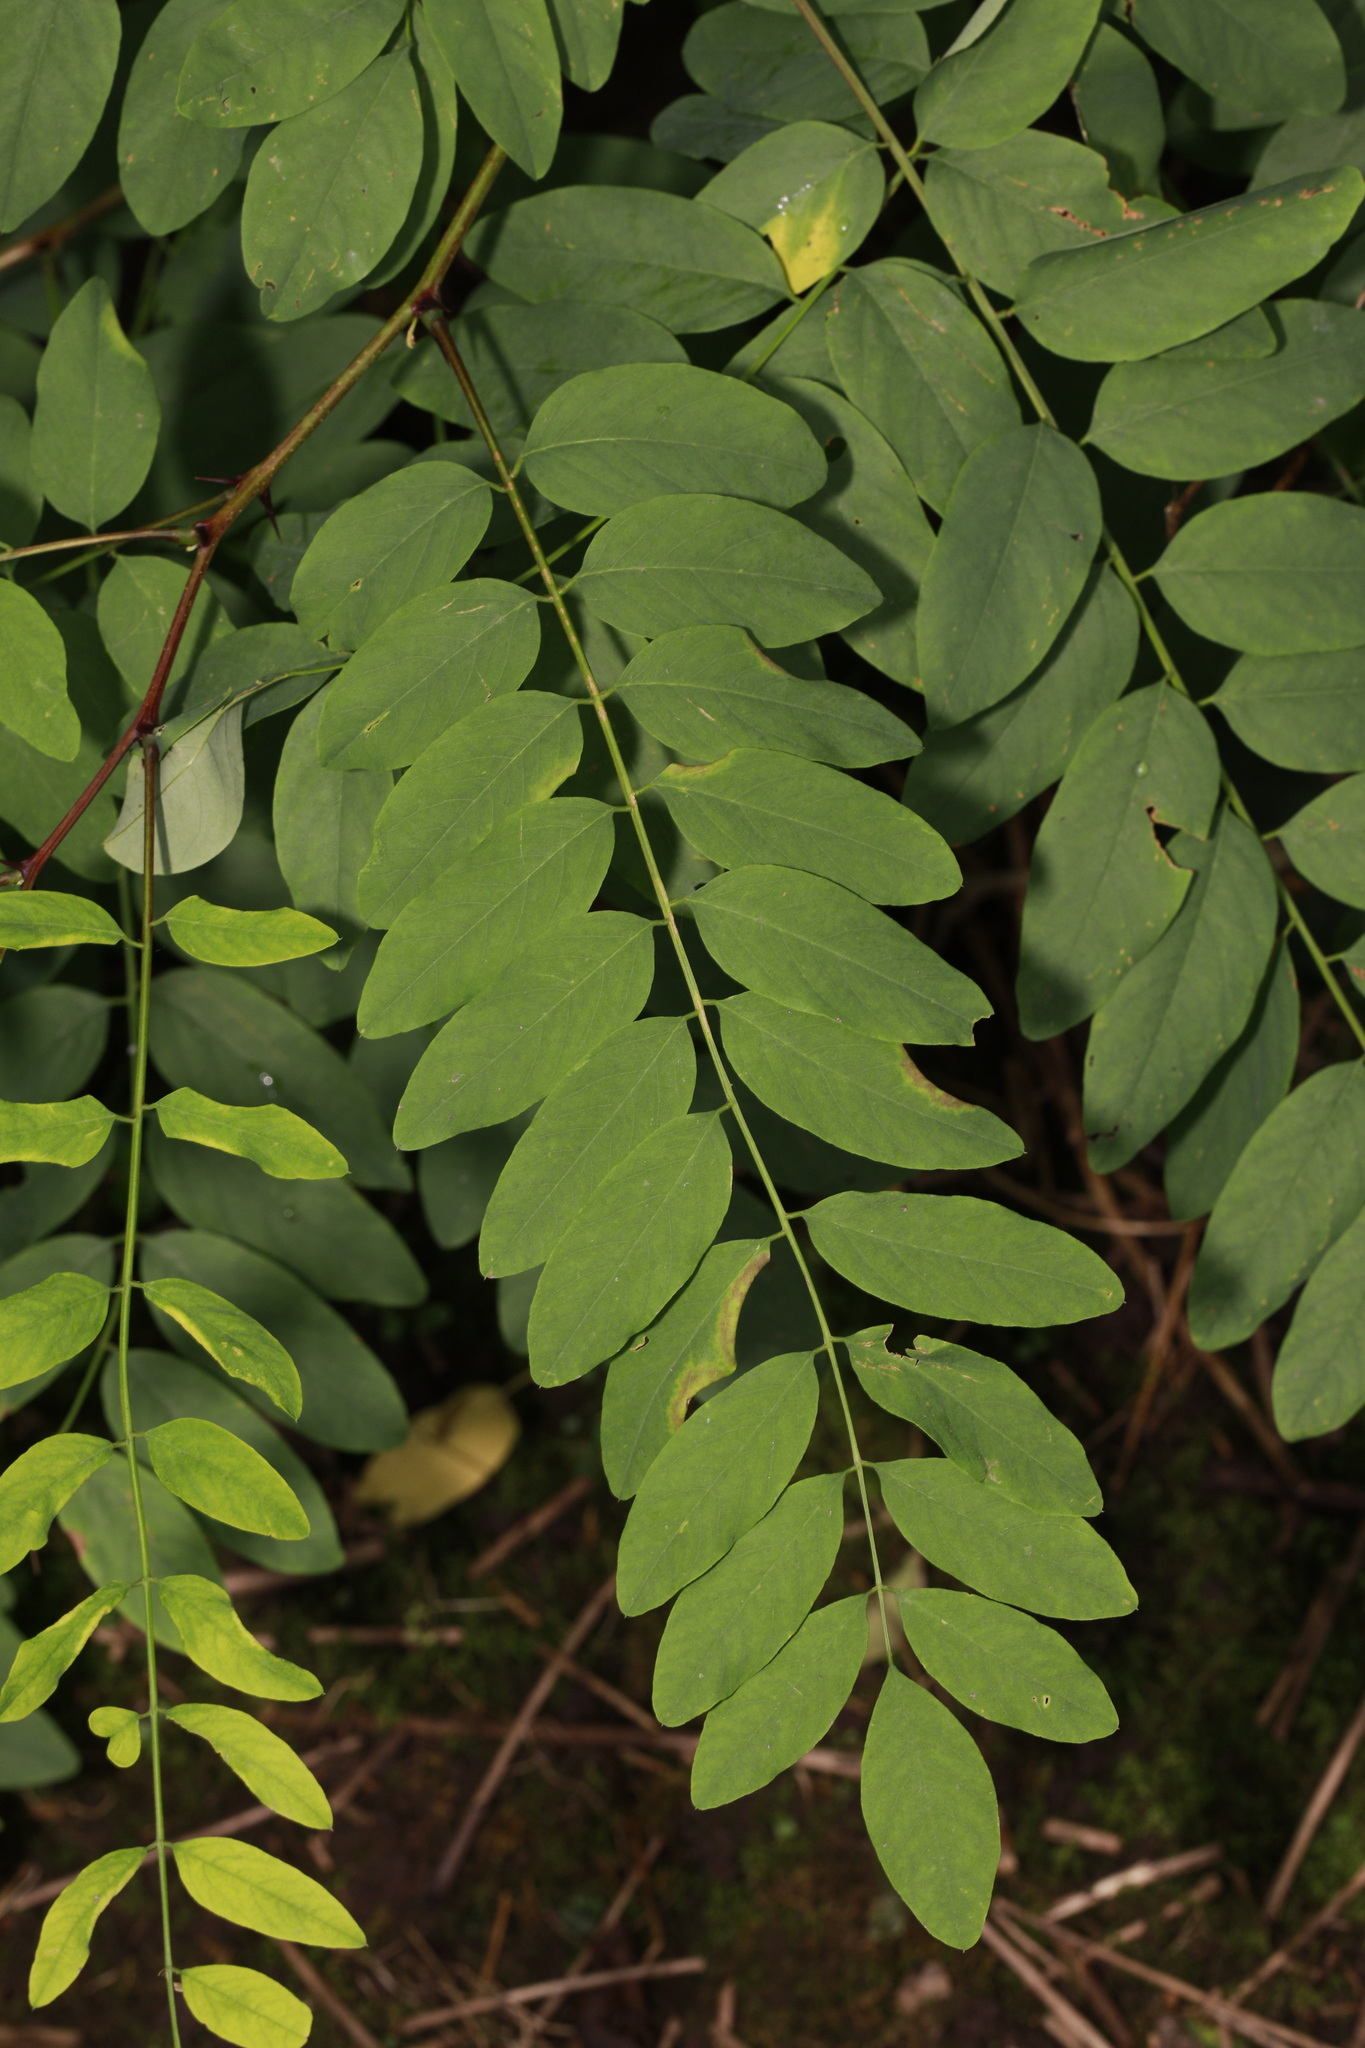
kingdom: Plantae
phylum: Tracheophyta
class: Magnoliopsida
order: Fabales
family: Fabaceae
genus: Robinia
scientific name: Robinia pseudoacacia
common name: Black locust
